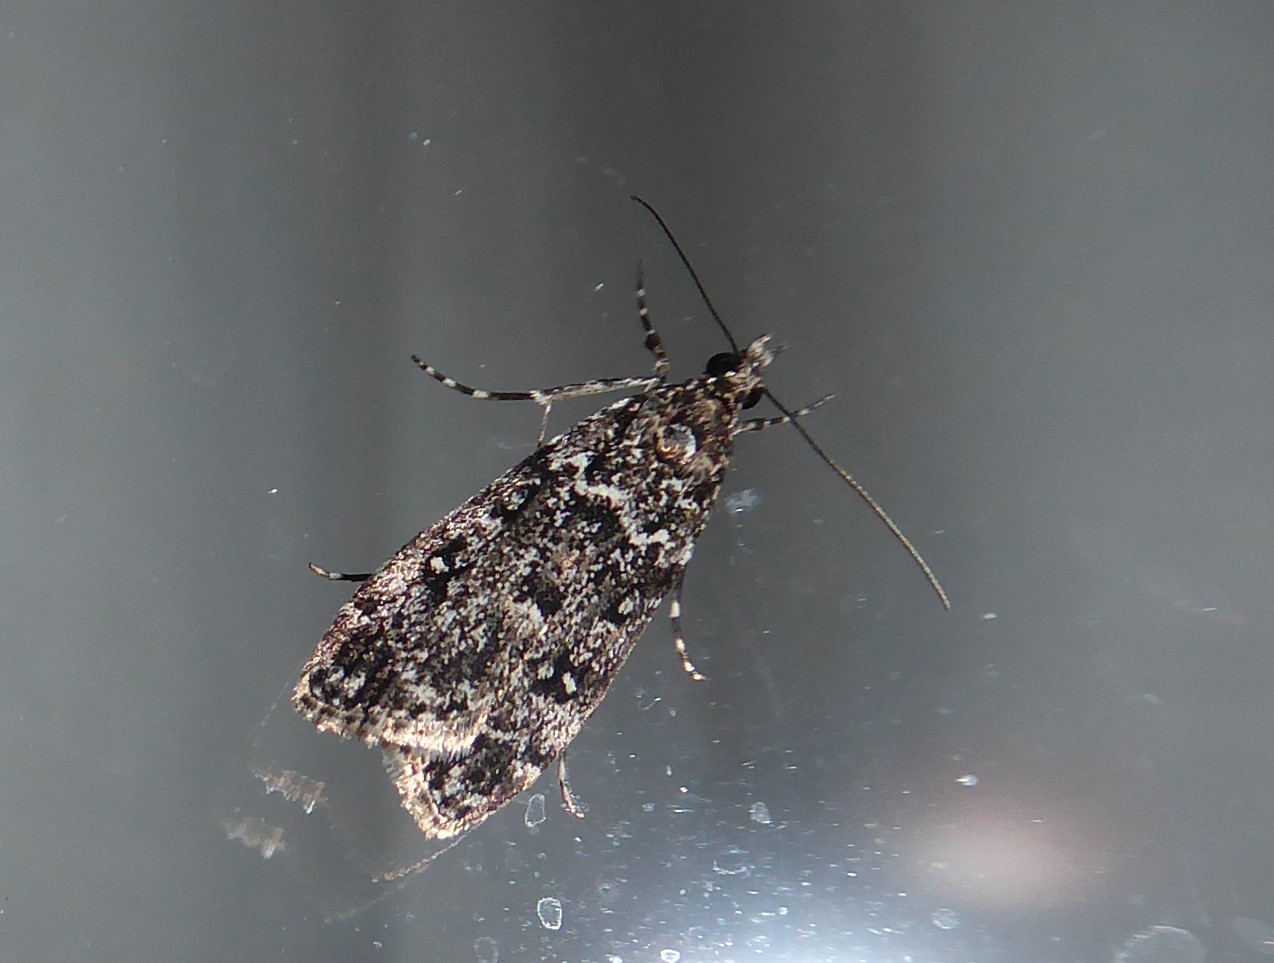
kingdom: Animalia
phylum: Arthropoda
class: Insecta
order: Lepidoptera
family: Crambidae
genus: Eudonia
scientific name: Eudonia philerga
